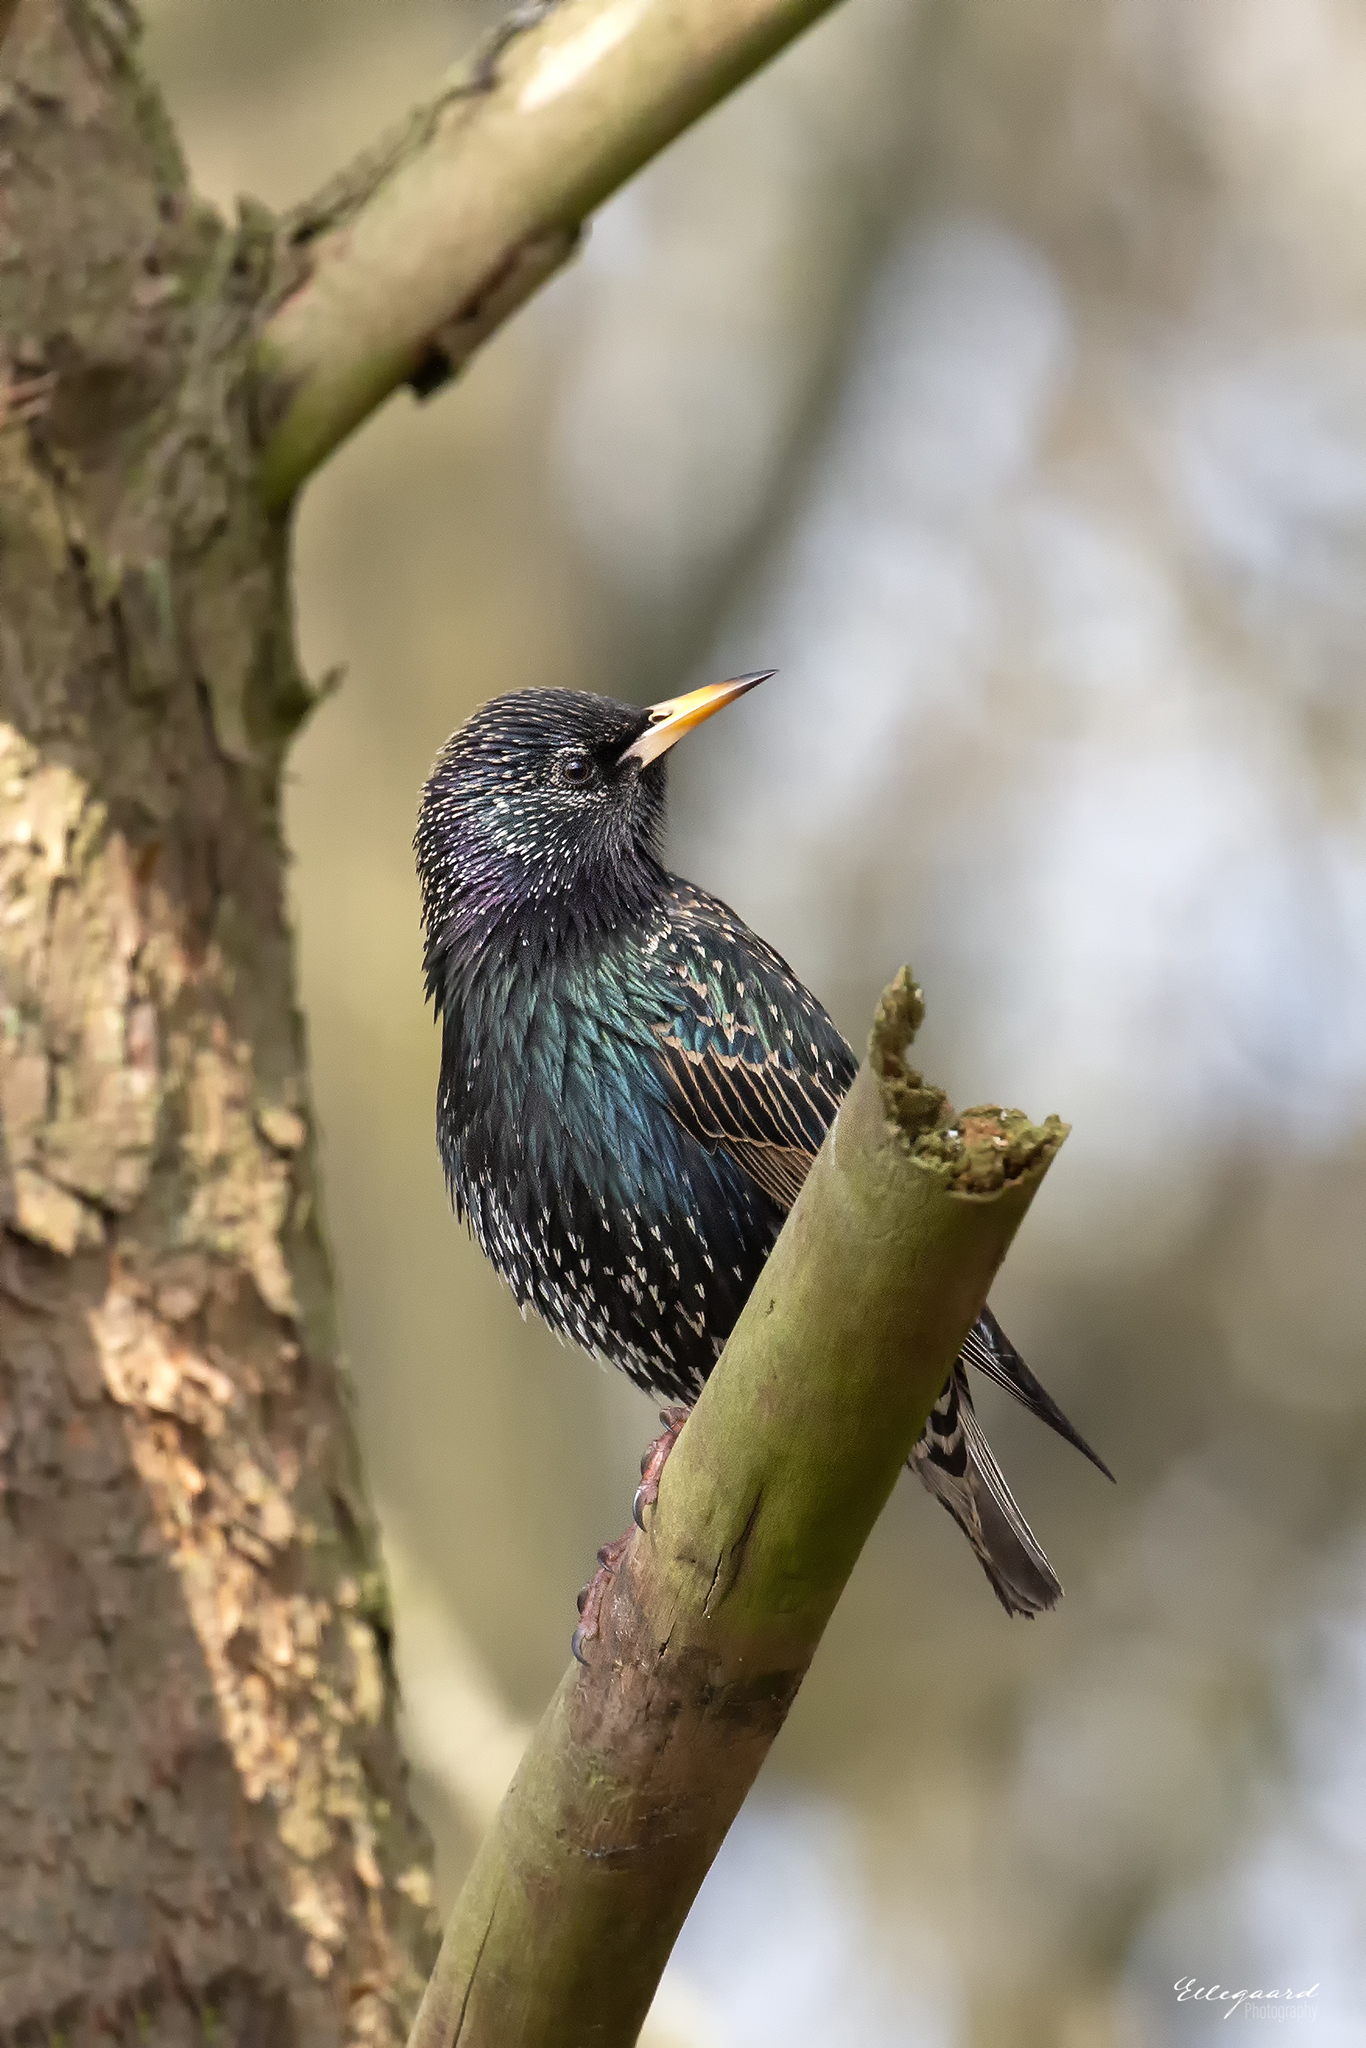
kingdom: Animalia
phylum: Chordata
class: Aves
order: Passeriformes
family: Sturnidae
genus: Sturnus
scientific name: Sturnus vulgaris
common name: Common starling
